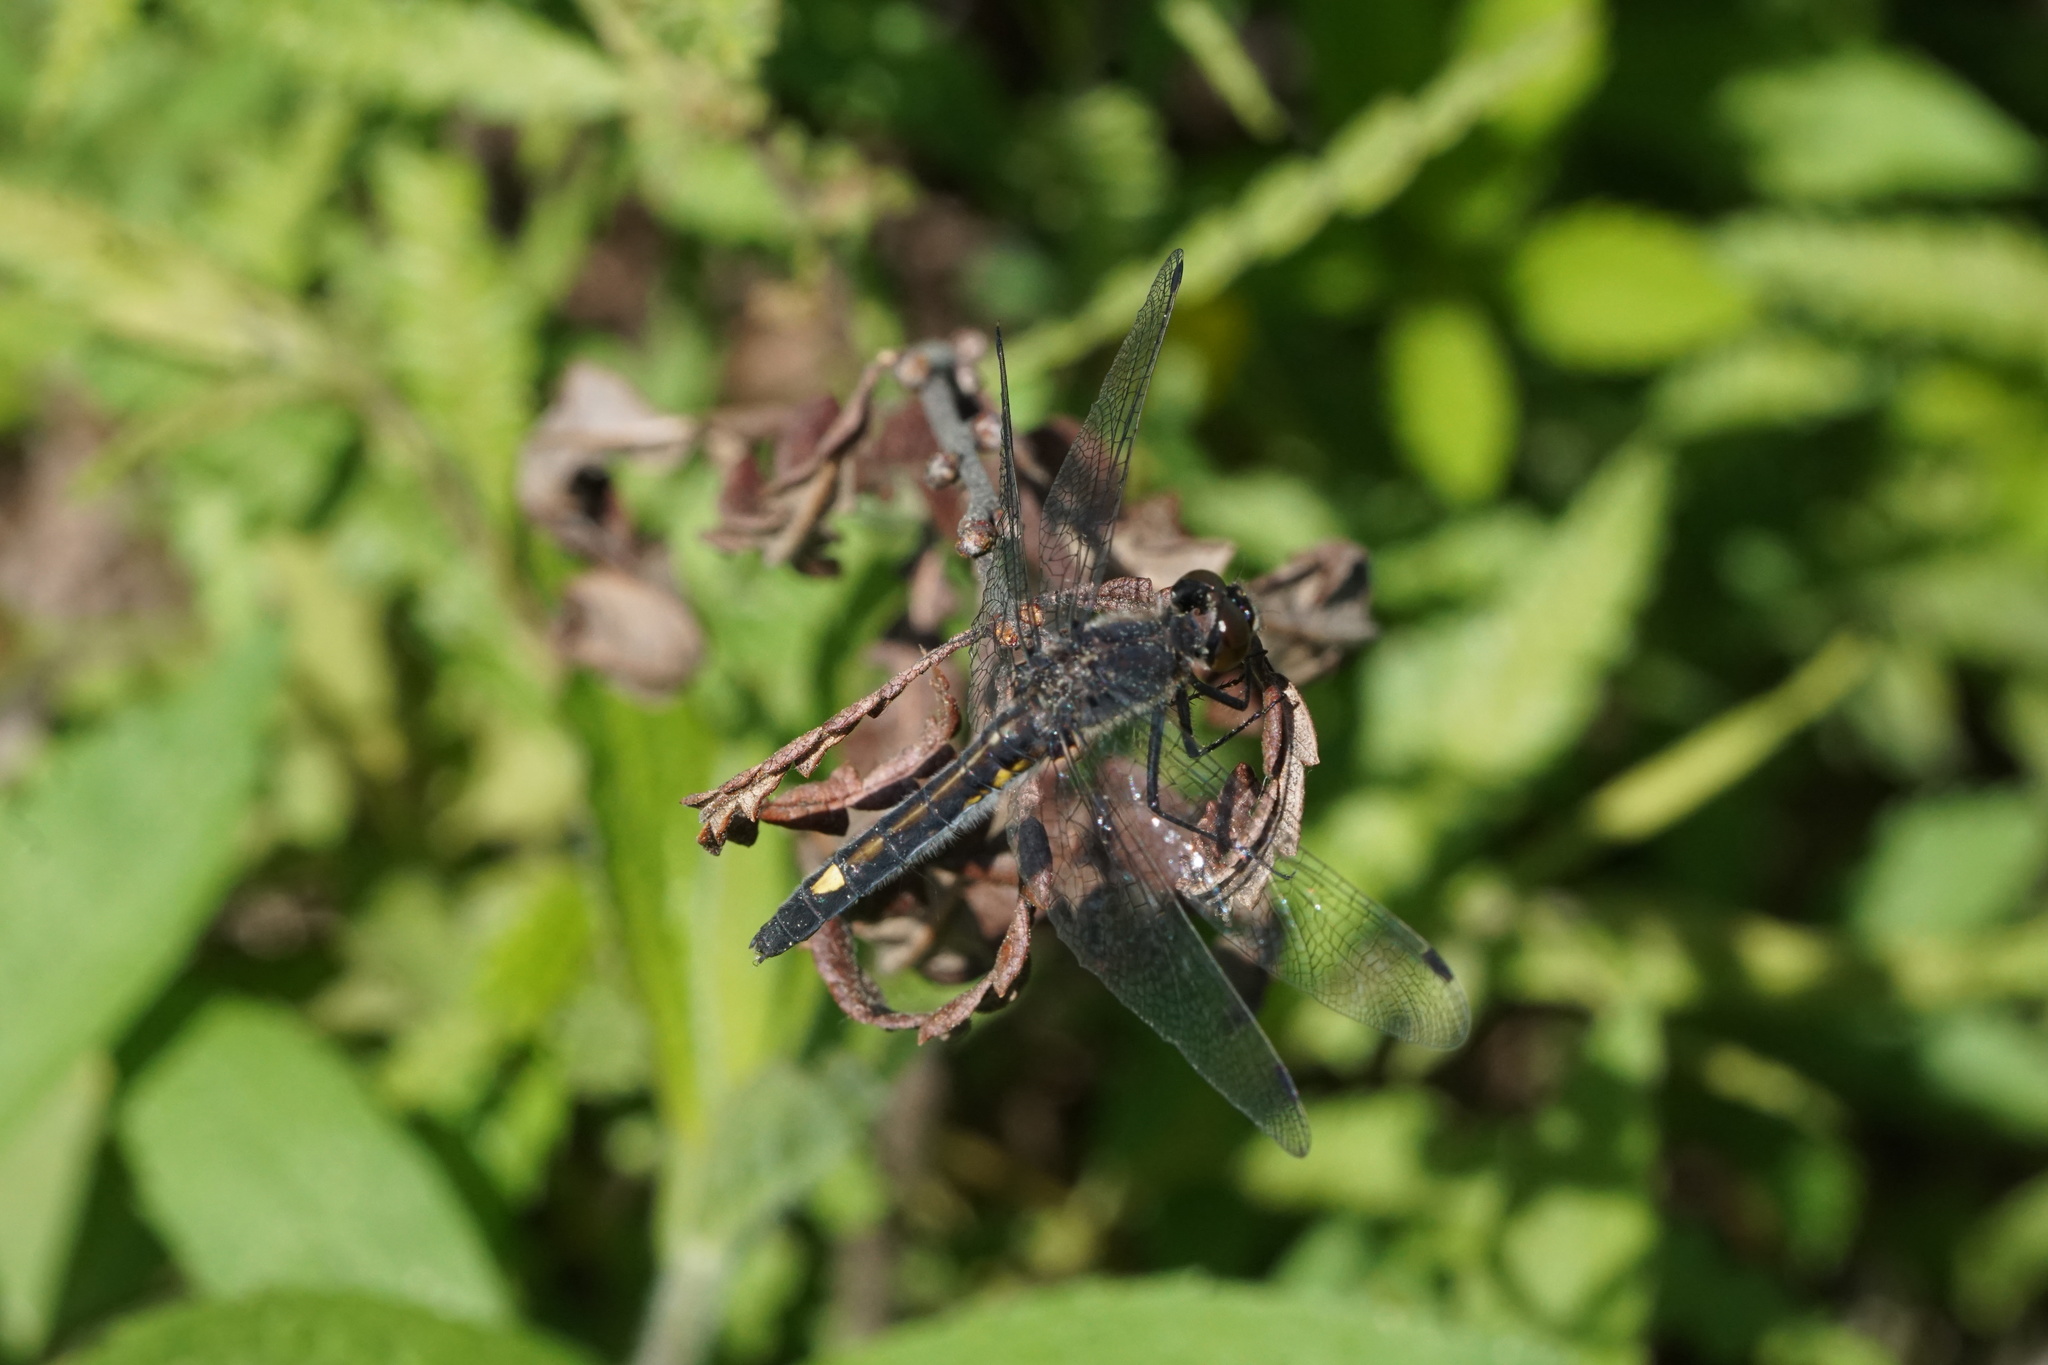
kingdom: Animalia
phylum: Arthropoda
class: Insecta
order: Odonata
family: Libellulidae
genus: Leucorrhinia
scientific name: Leucorrhinia intacta
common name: Dot-tailed whiteface
